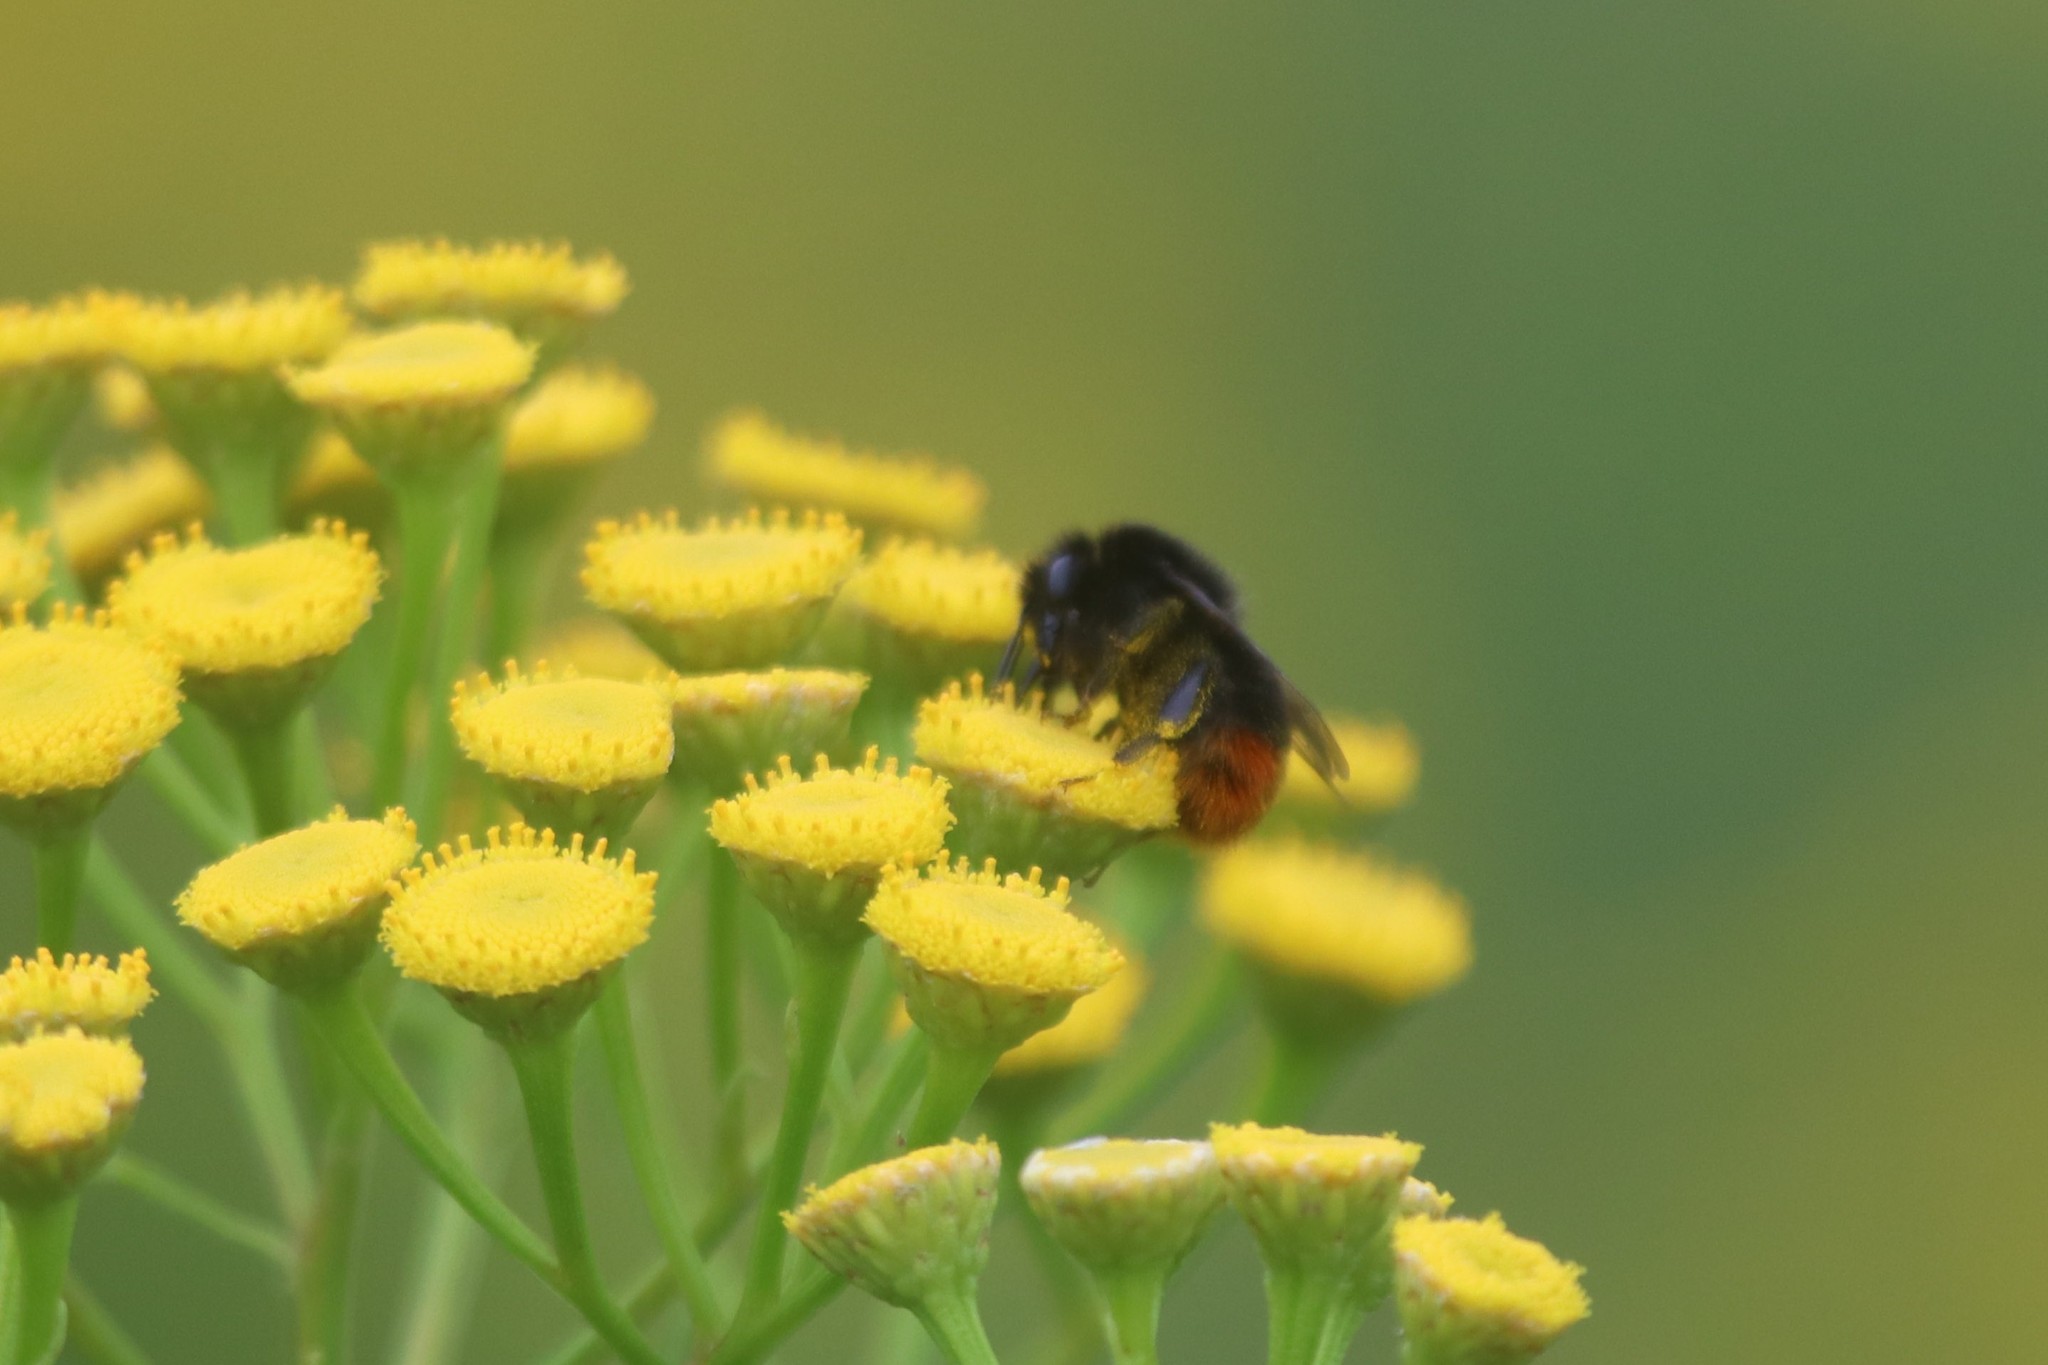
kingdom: Animalia
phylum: Arthropoda
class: Insecta
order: Hymenoptera
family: Apidae
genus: Bombus
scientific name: Bombus
